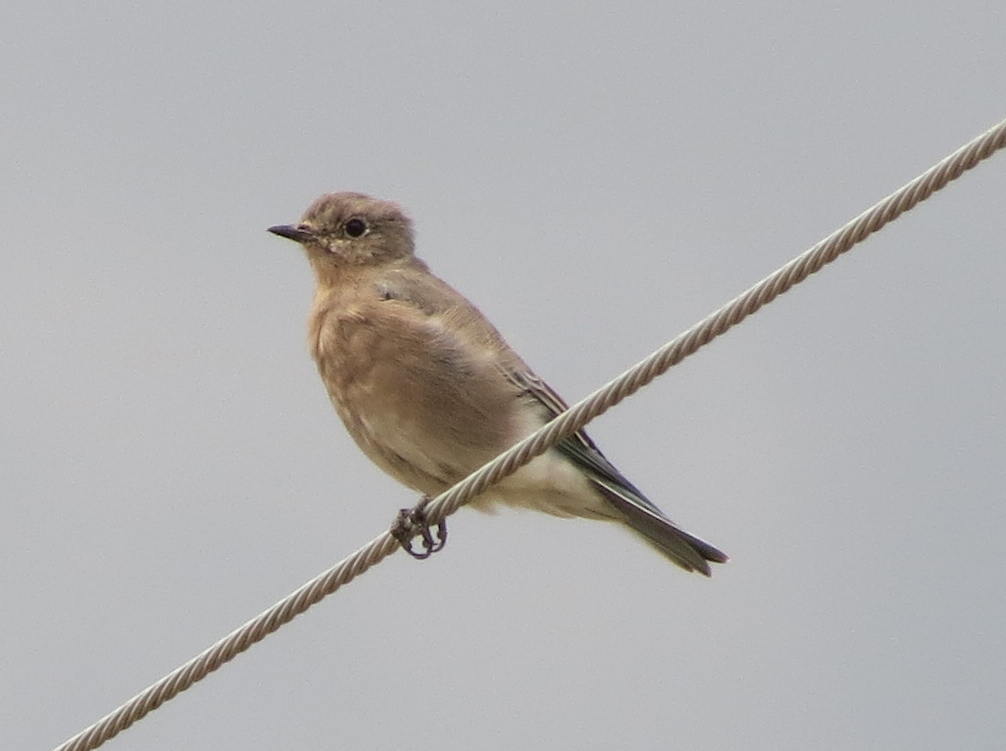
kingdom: Animalia
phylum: Chordata
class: Aves
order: Passeriformes
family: Turdidae
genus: Sialia
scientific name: Sialia currucoides
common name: Mountain bluebird
